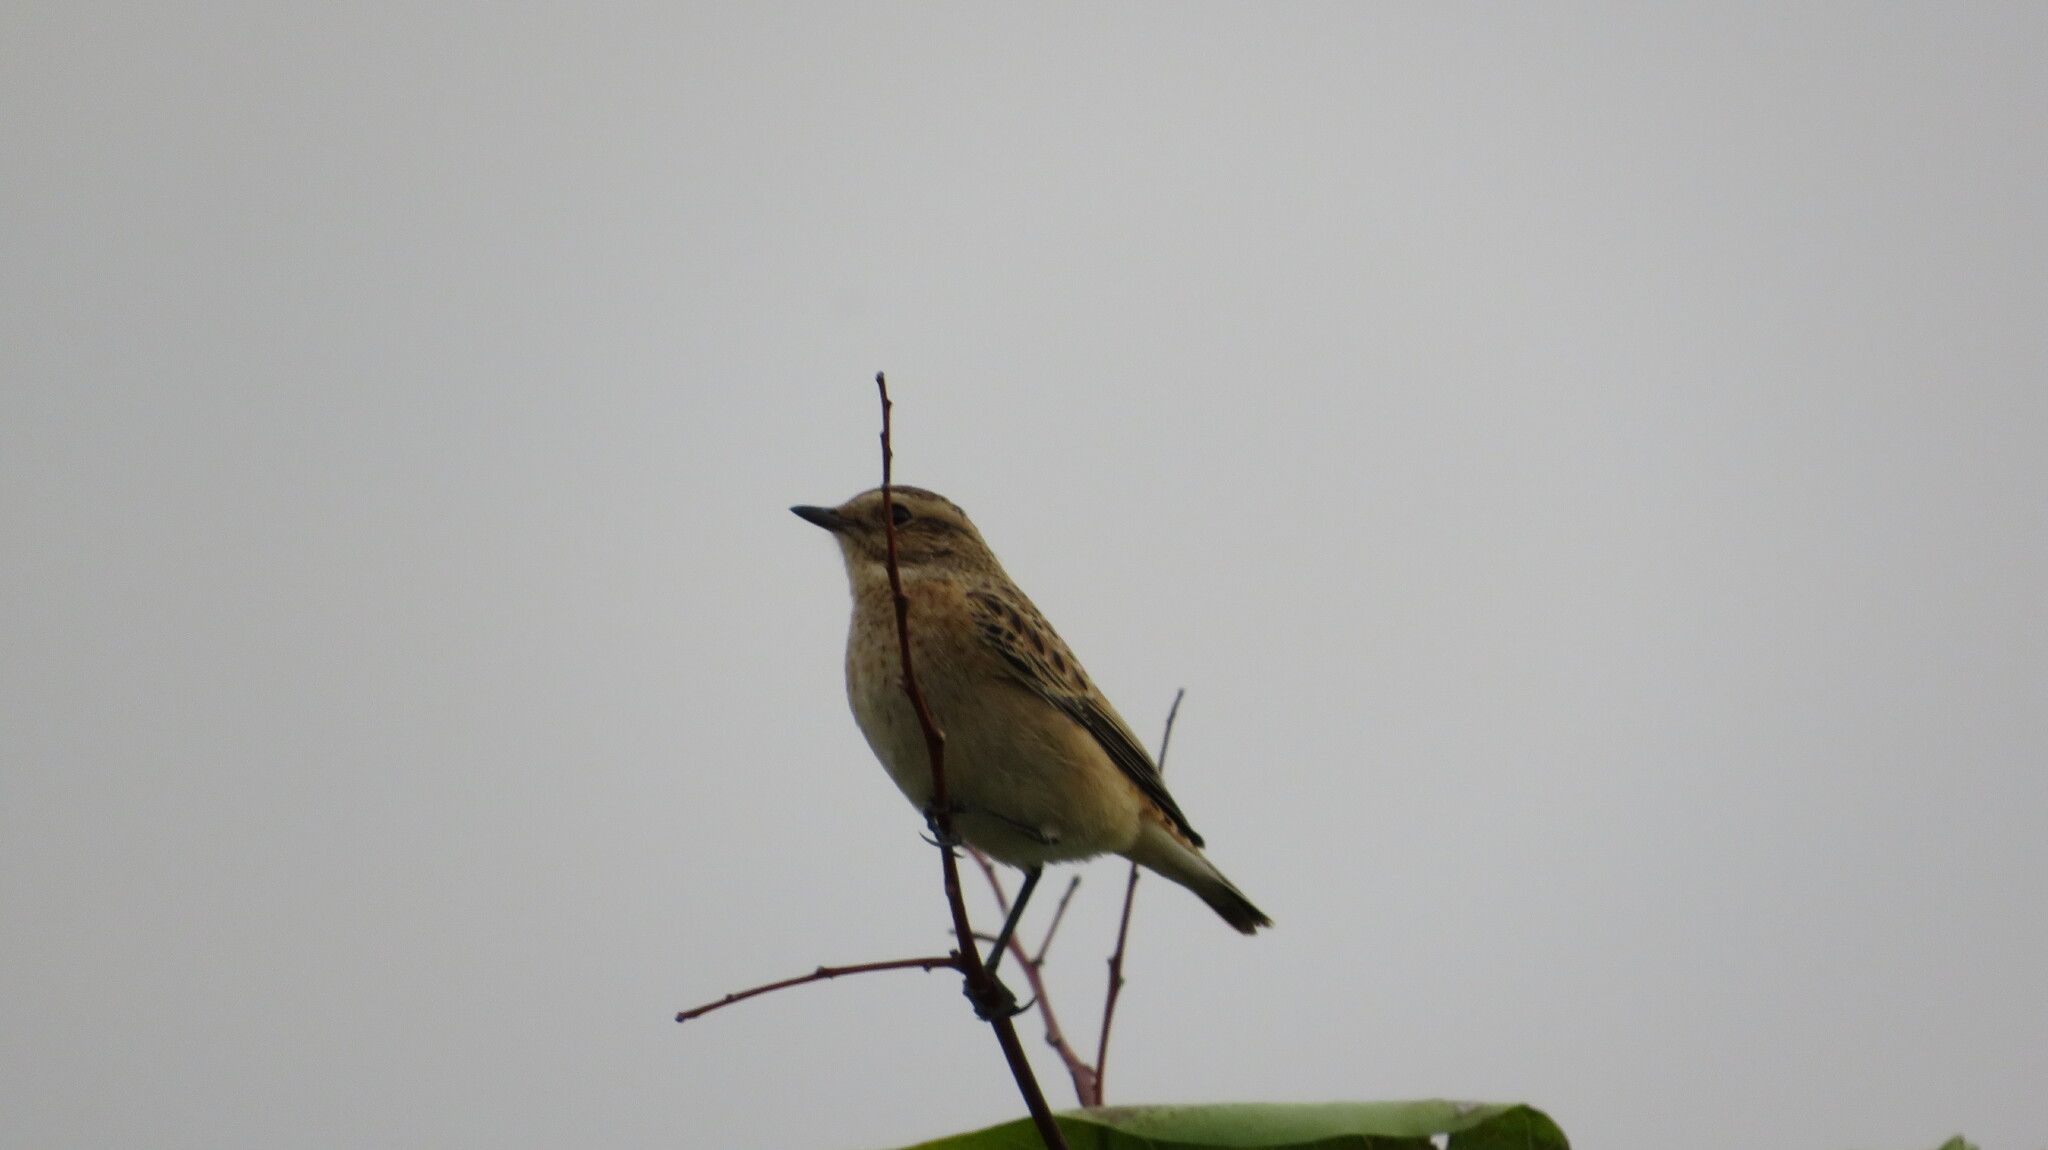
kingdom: Animalia
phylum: Chordata
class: Aves
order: Passeriformes
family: Muscicapidae
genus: Saxicola
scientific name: Saxicola rubetra
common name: Whinchat
